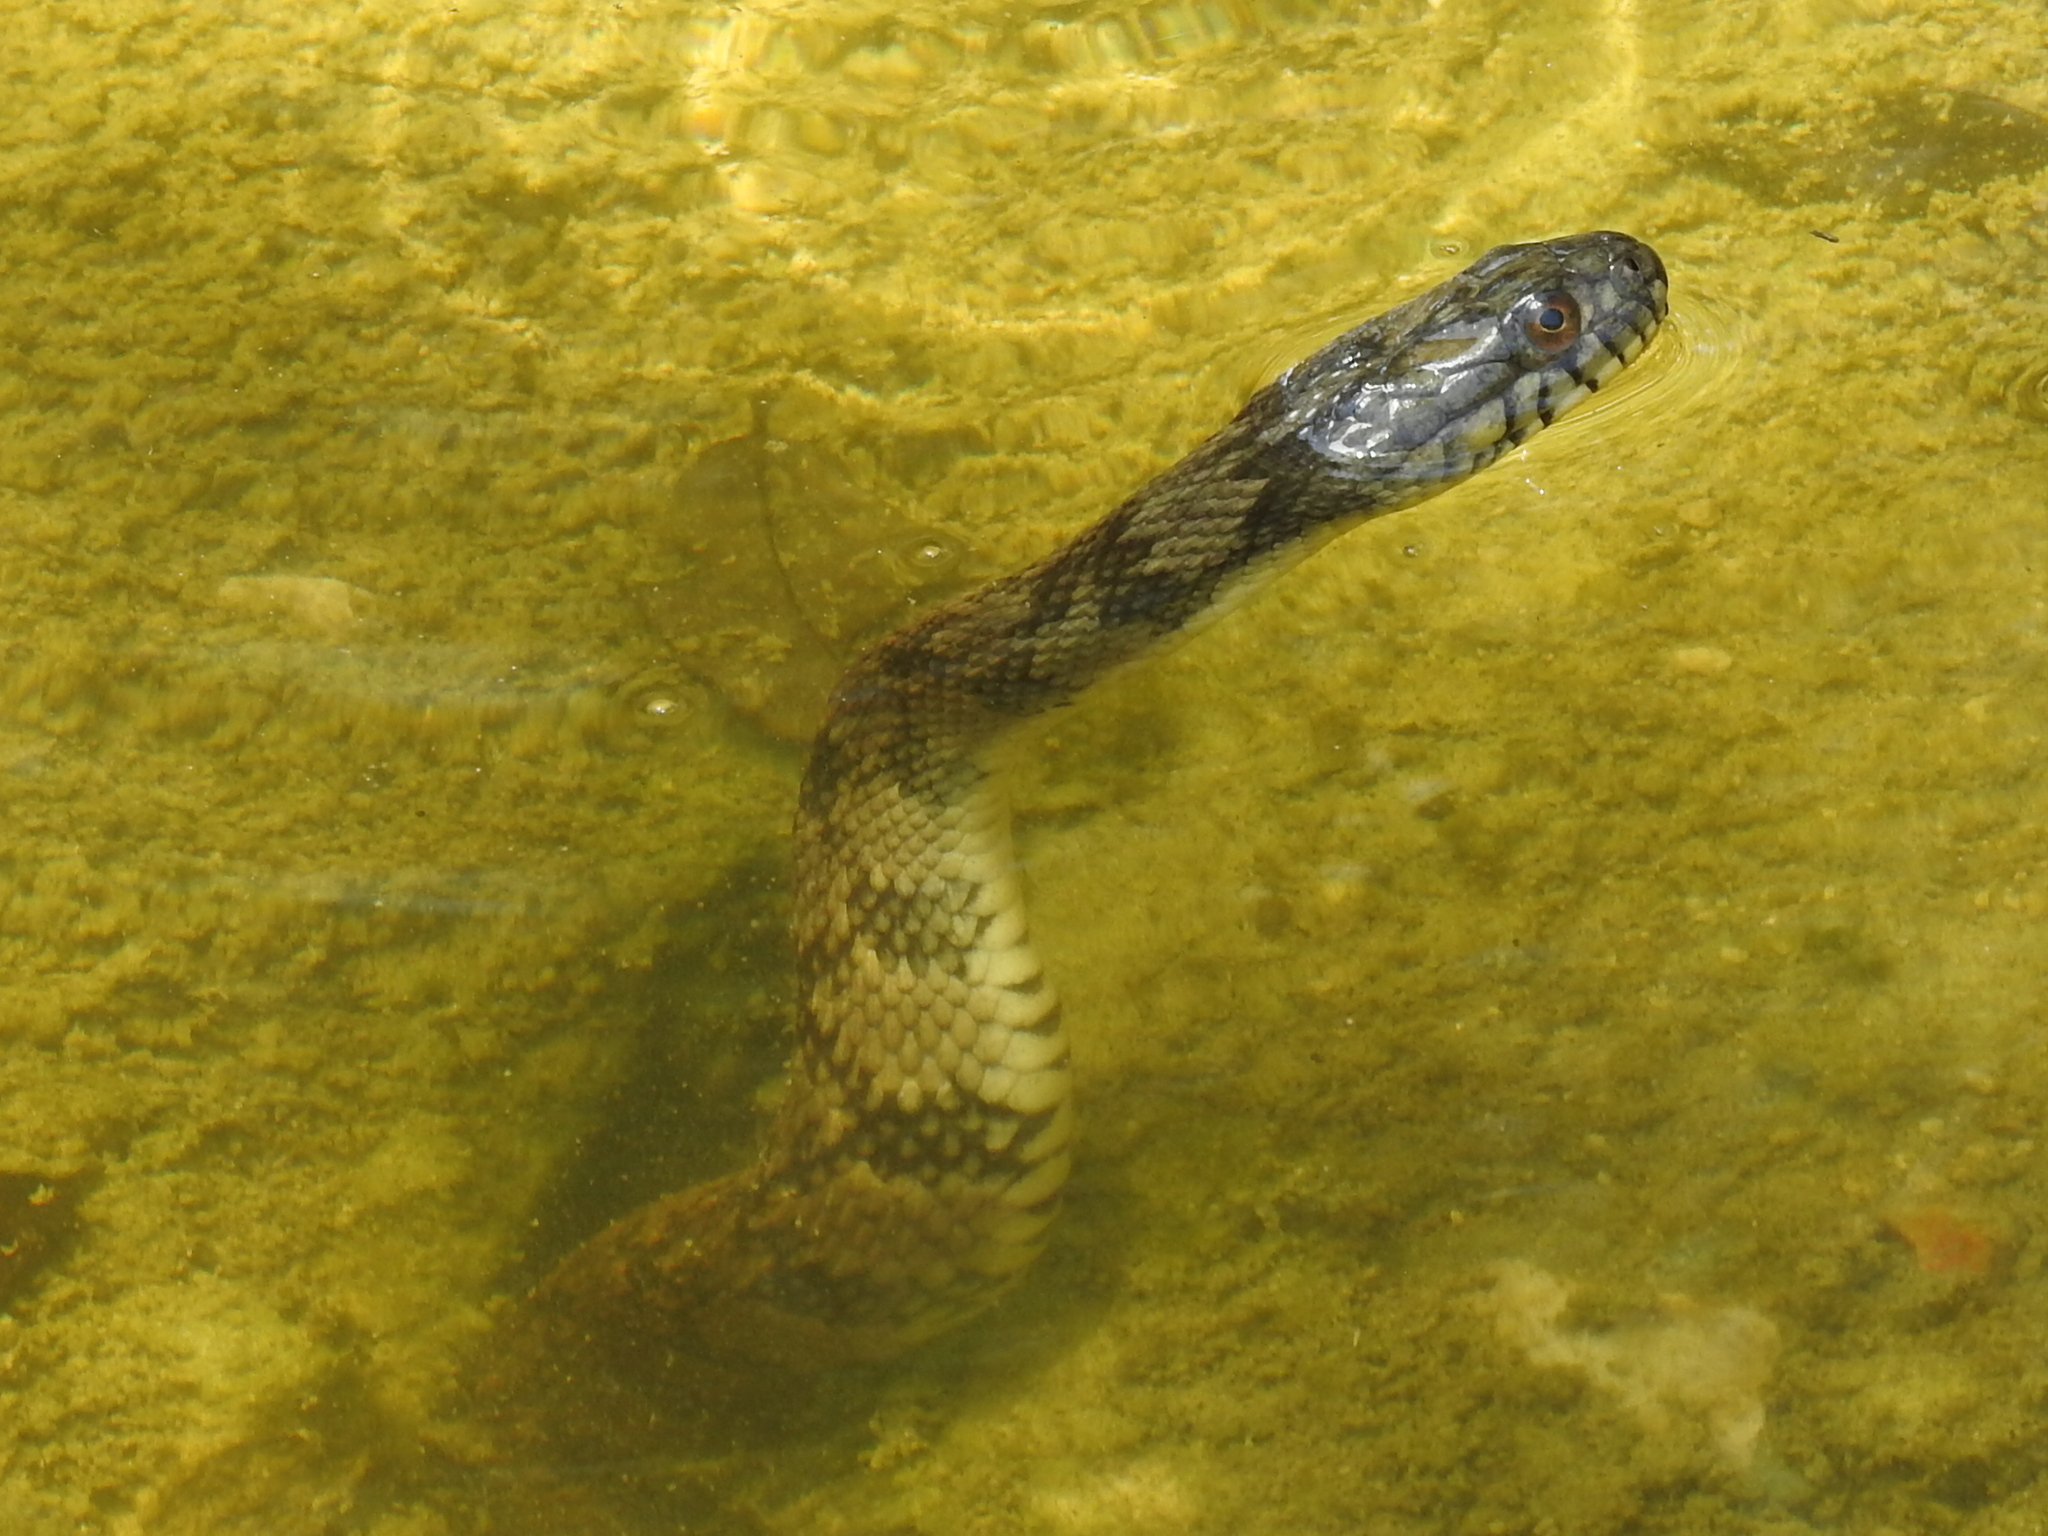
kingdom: Animalia
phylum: Chordata
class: Squamata
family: Colubridae
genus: Nerodia
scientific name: Nerodia rhombifer
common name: Diamondback water snake
